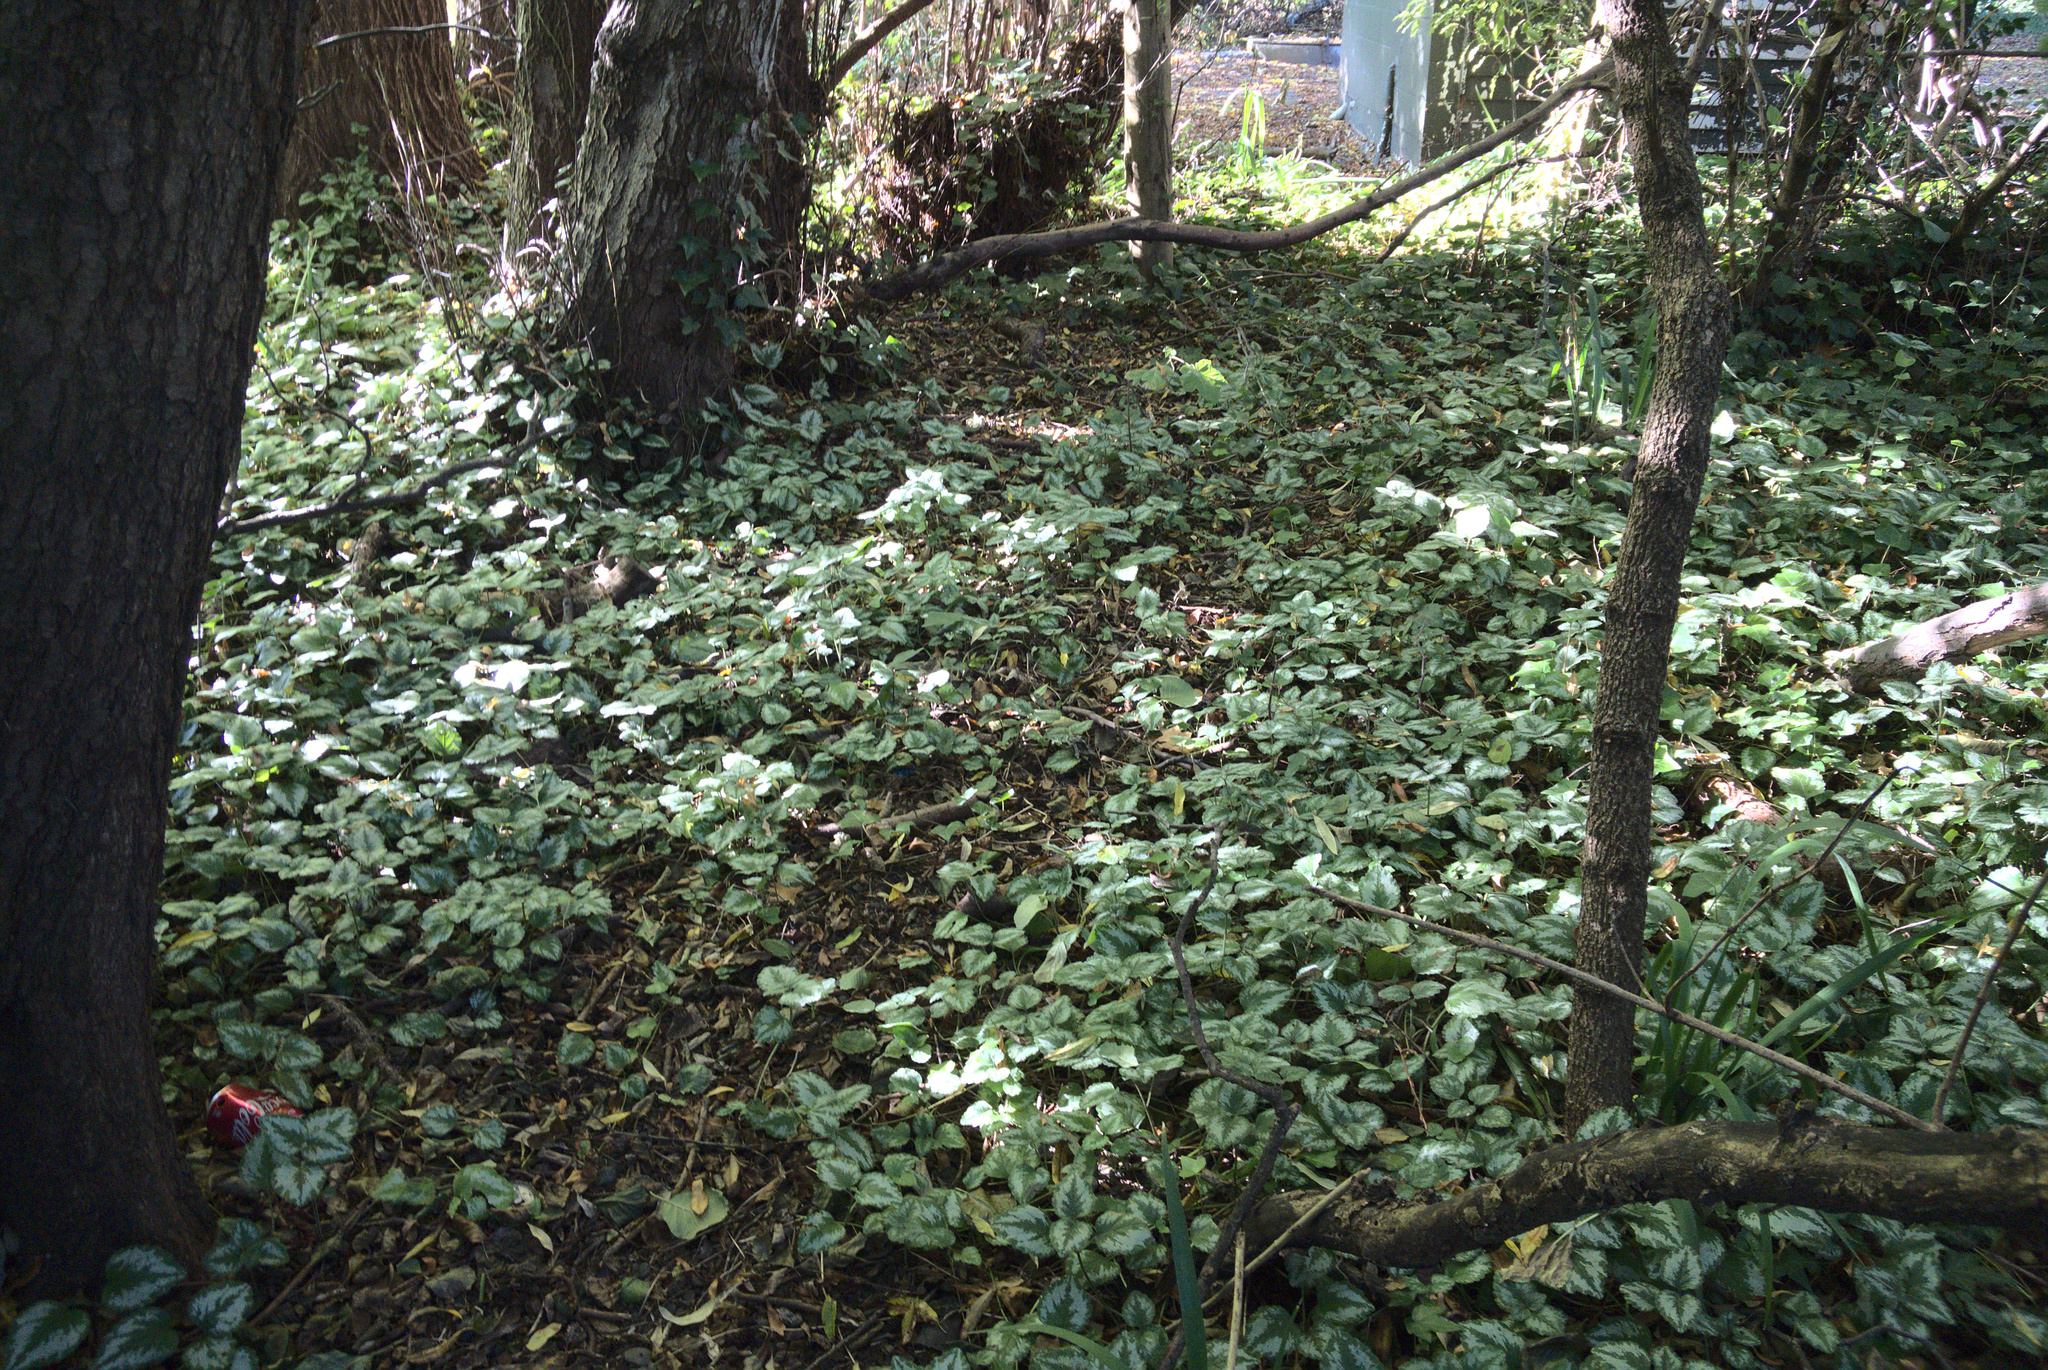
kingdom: Plantae
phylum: Tracheophyta
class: Magnoliopsida
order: Lamiales
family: Lamiaceae
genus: Lamium
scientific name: Lamium galeobdolon
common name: Yellow archangel
